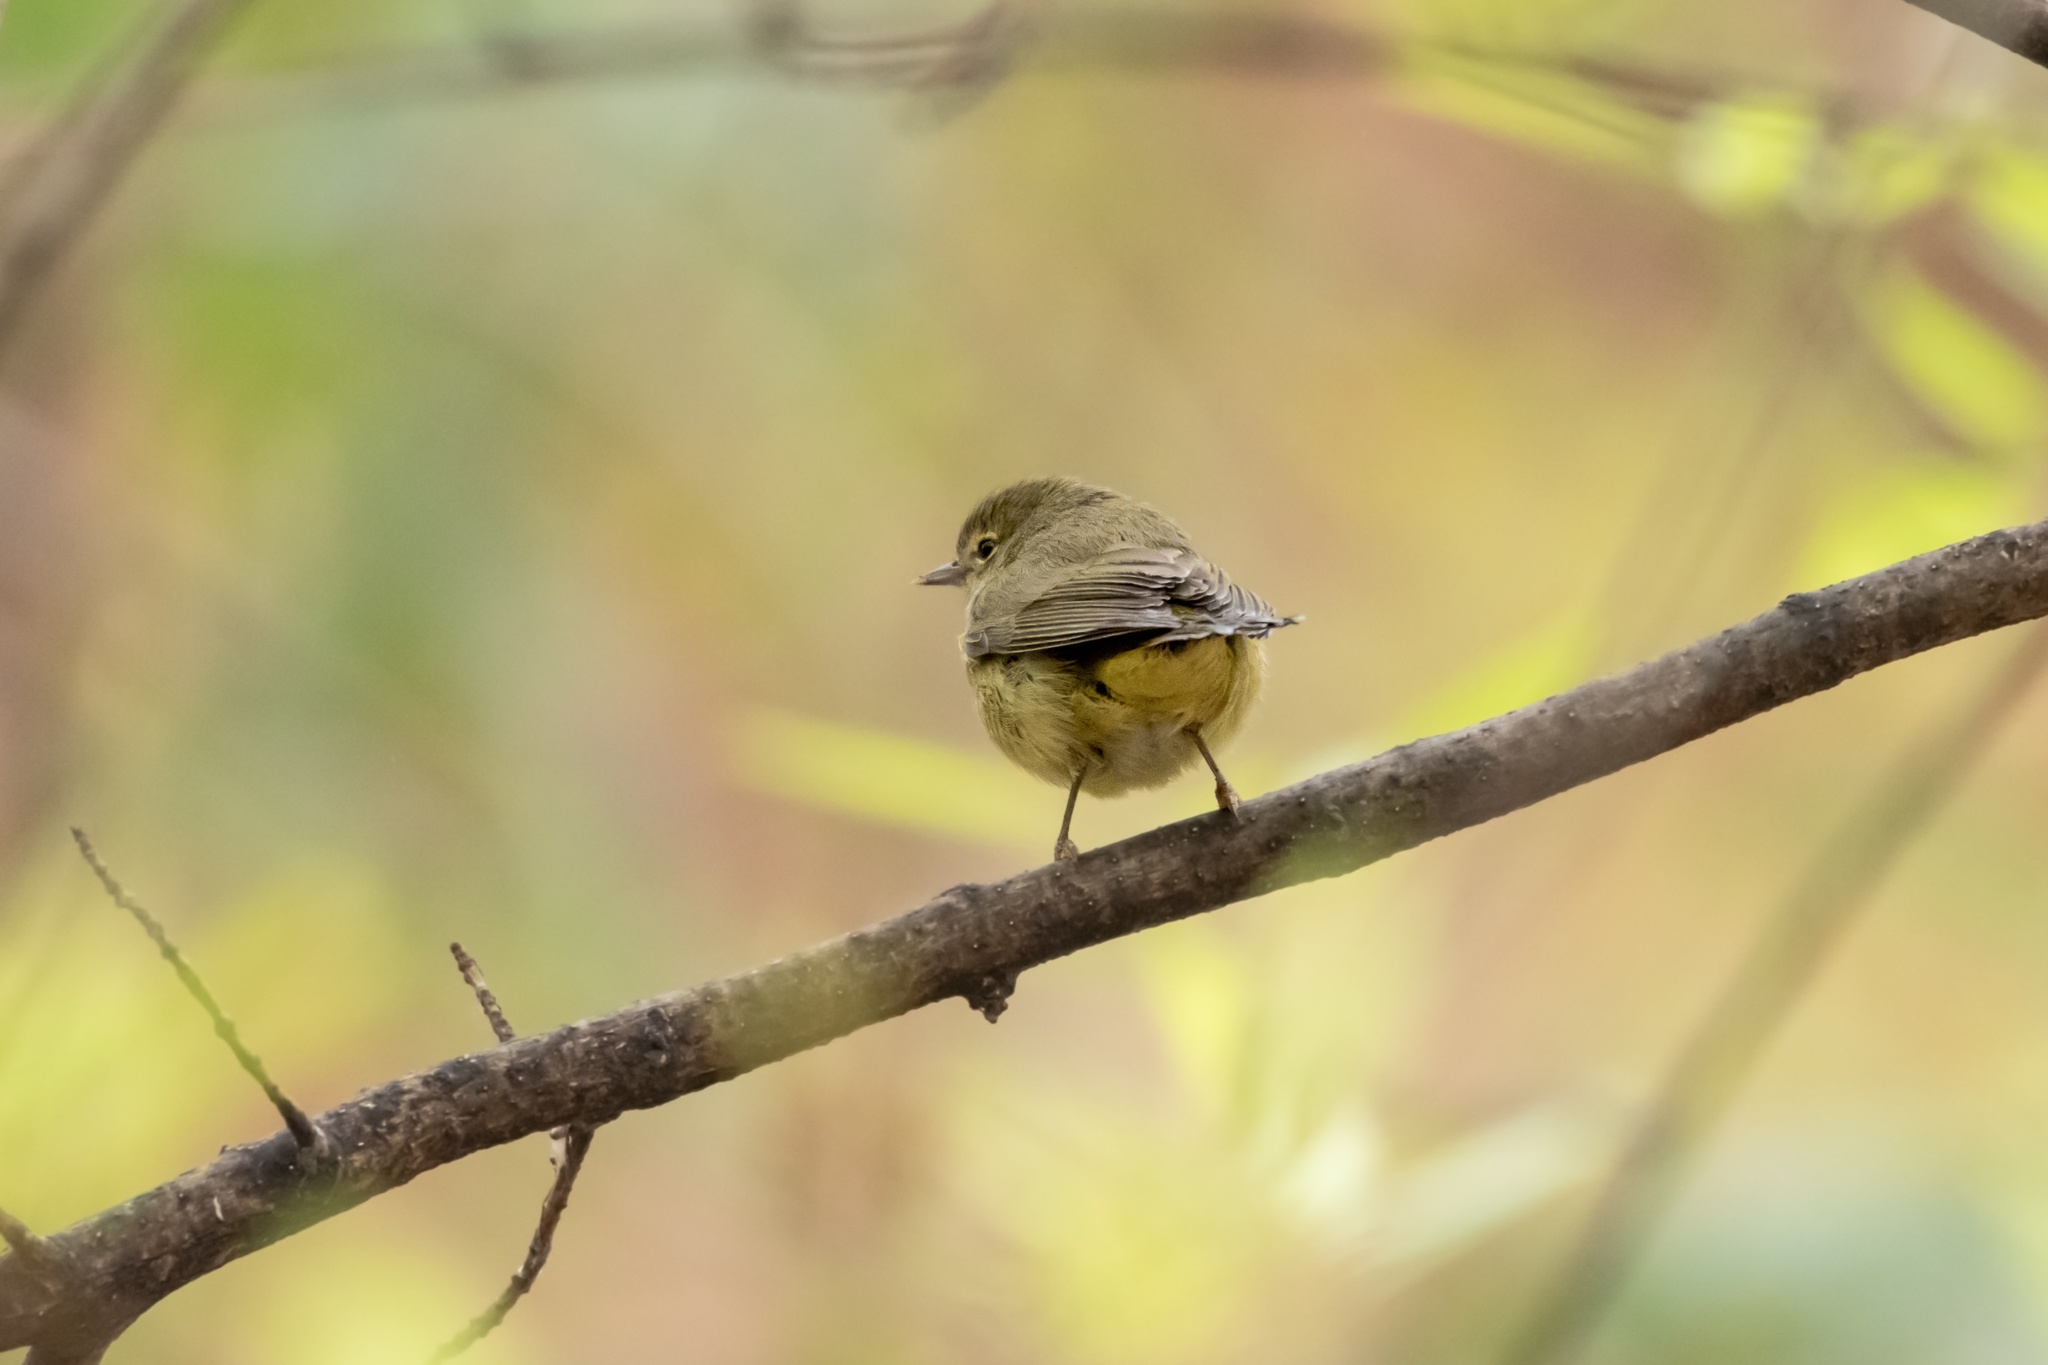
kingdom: Animalia
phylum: Chordata
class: Aves
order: Passeriformes
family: Parulidae
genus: Leiothlypis
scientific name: Leiothlypis celata
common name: Orange-crowned warbler
